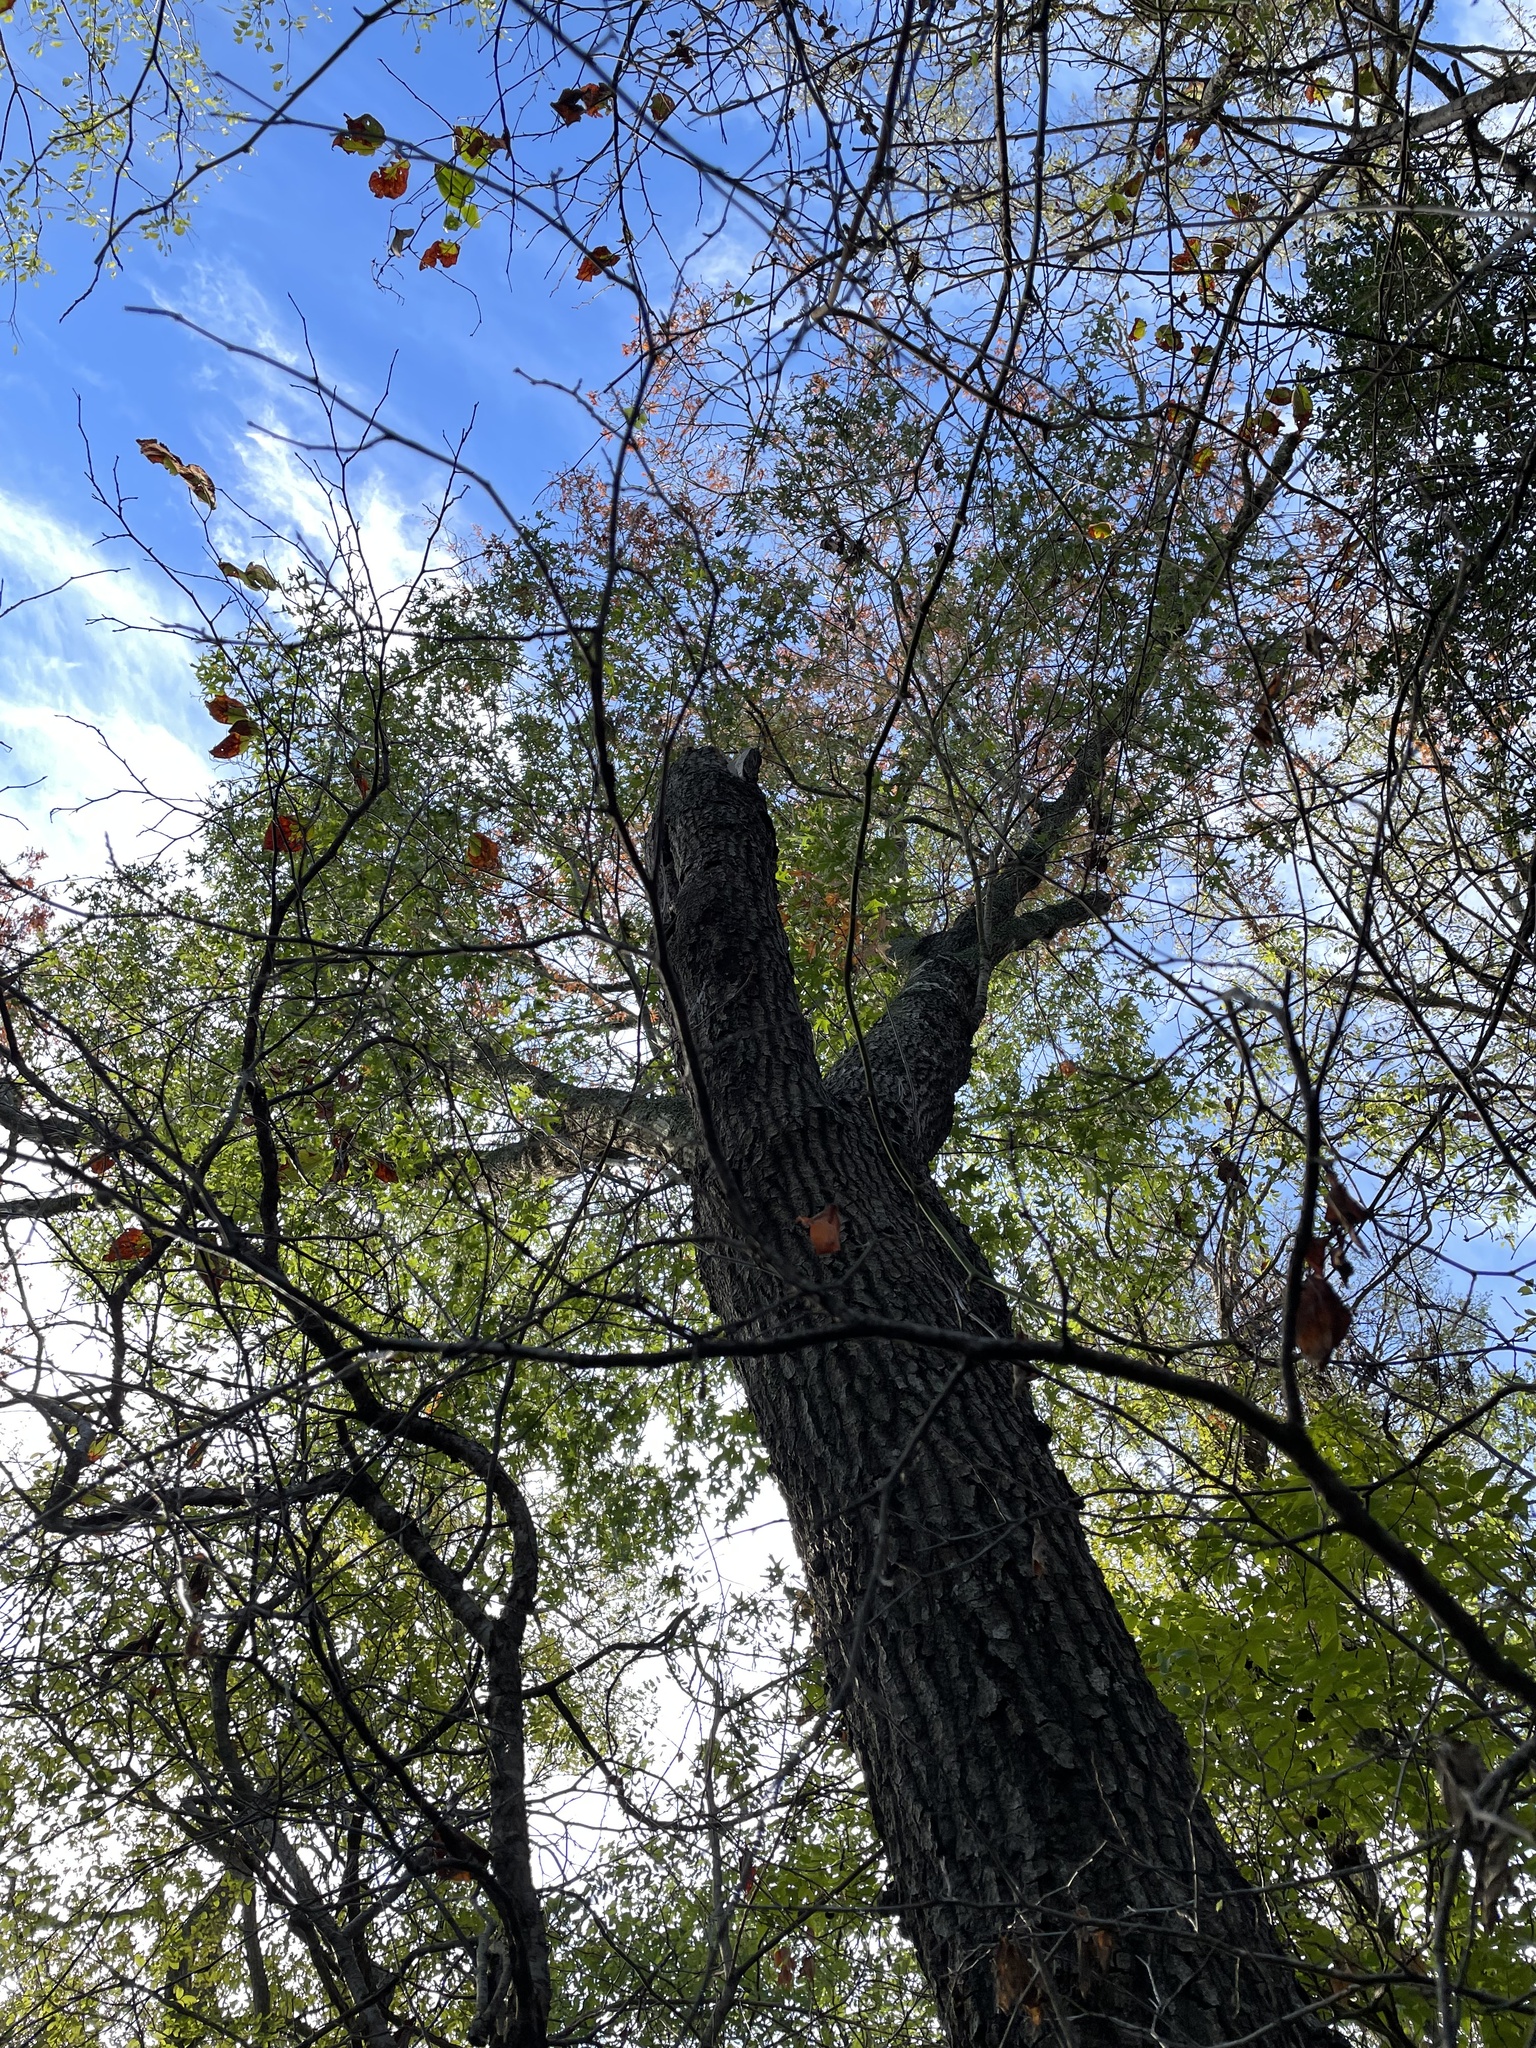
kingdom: Plantae
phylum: Tracheophyta
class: Magnoliopsida
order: Fagales
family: Fagaceae
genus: Quercus
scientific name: Quercus buckleyi
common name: Buckley oak
